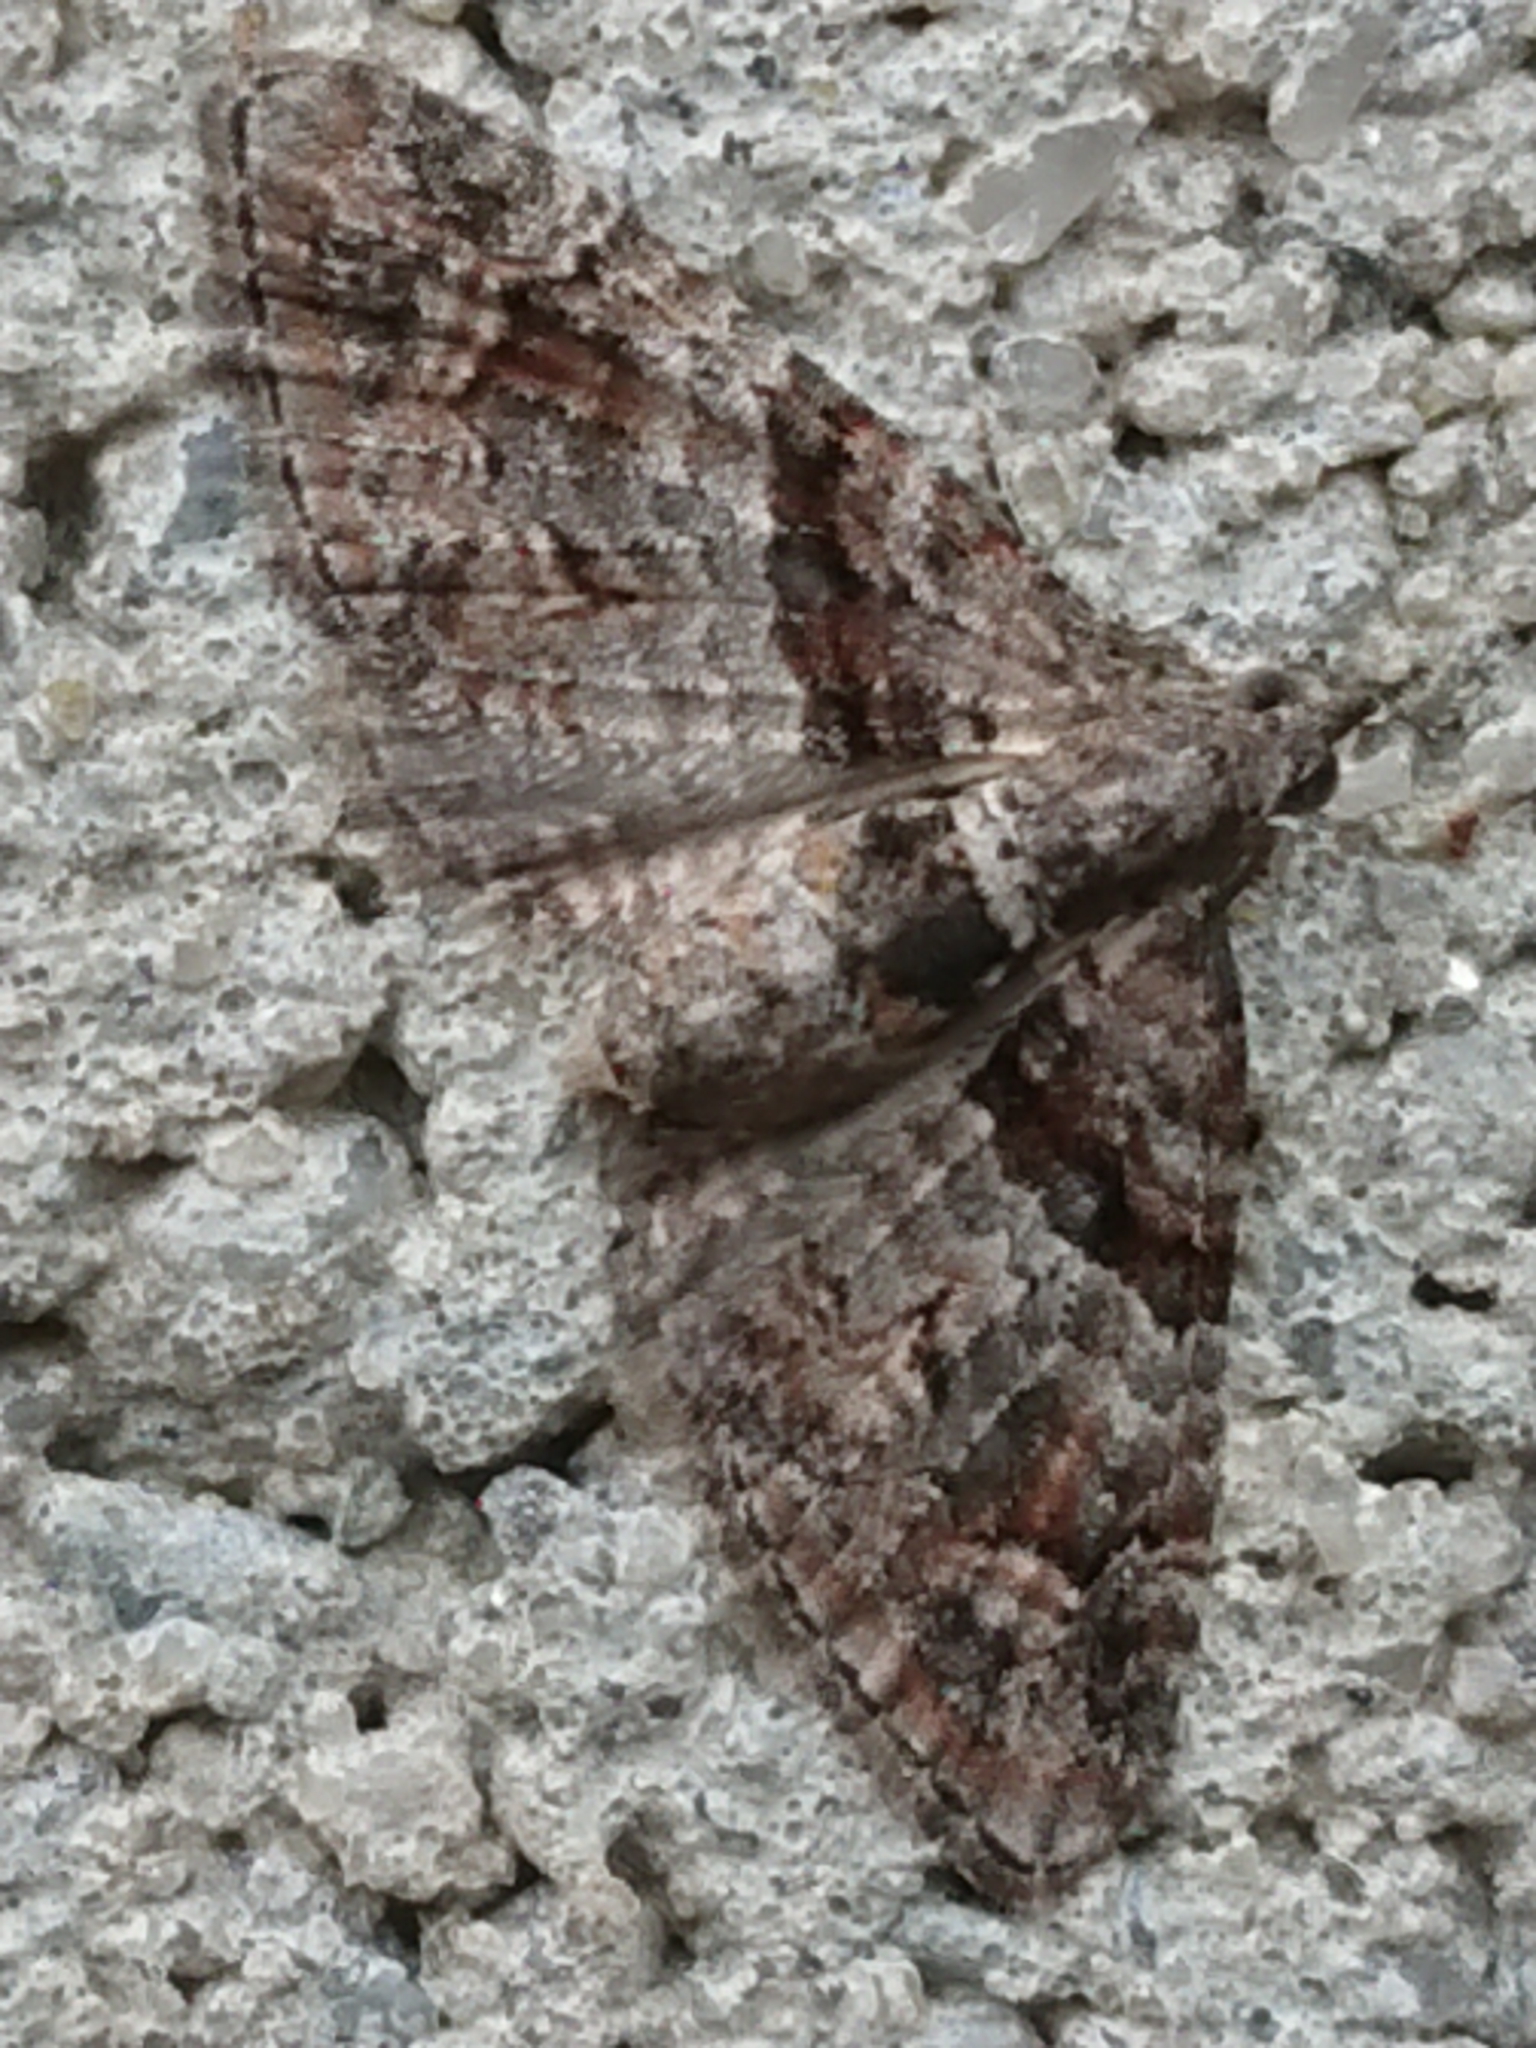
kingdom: Animalia
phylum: Arthropoda
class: Insecta
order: Lepidoptera
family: Geometridae
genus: Phrissogonus
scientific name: Phrissogonus laticostata
